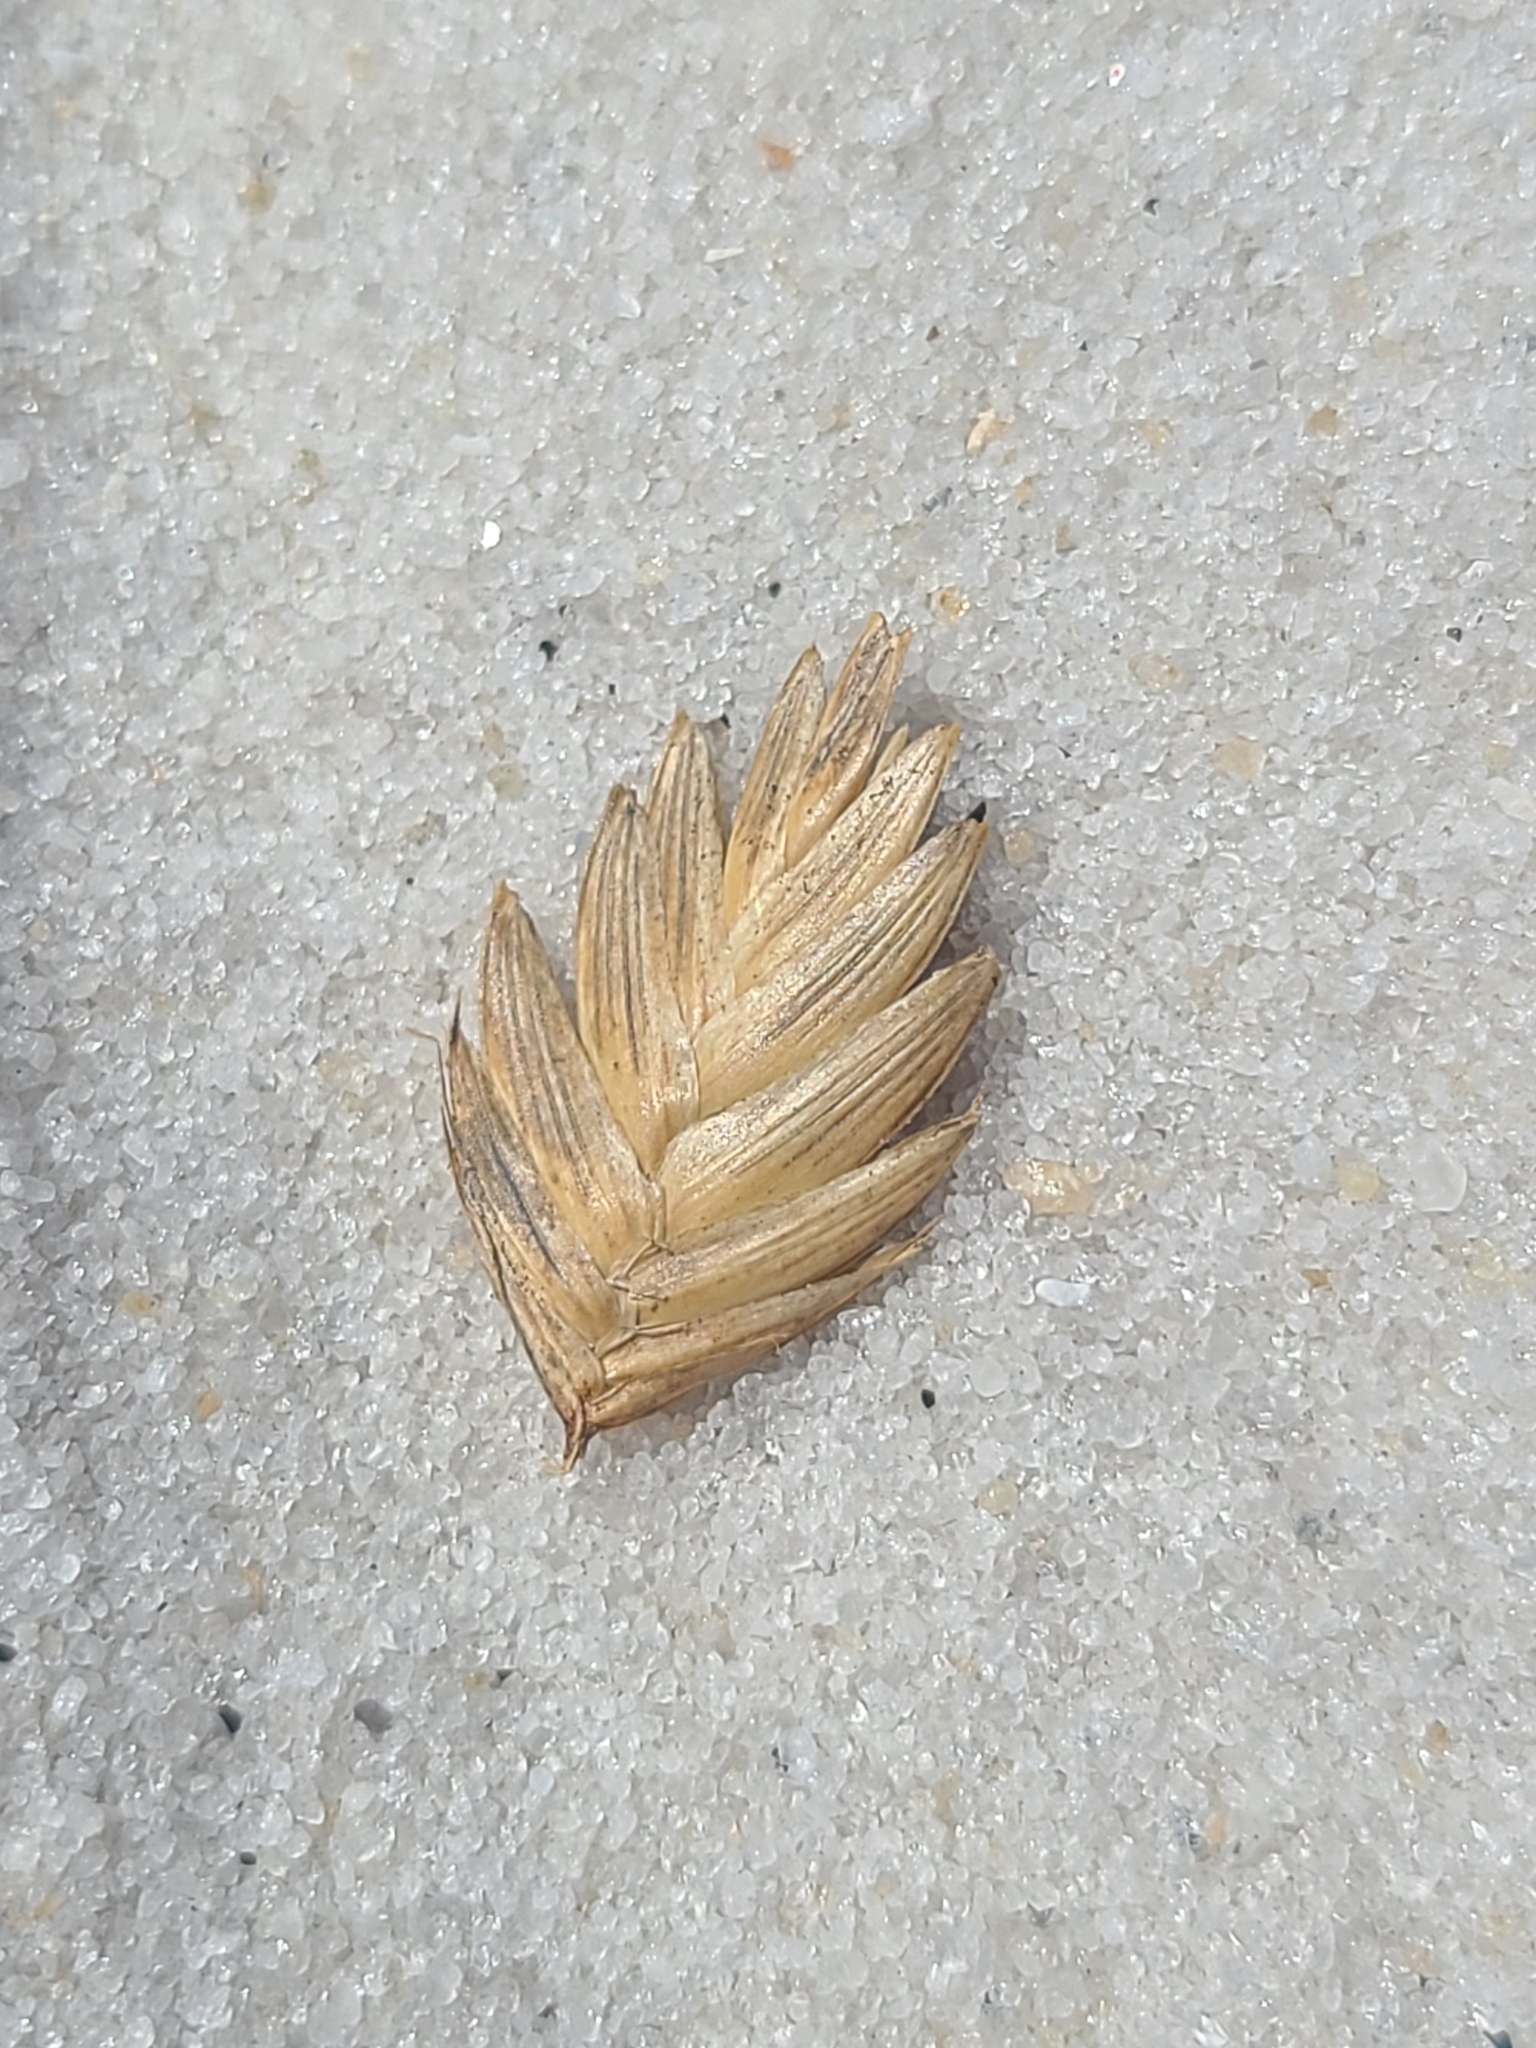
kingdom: Plantae
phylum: Tracheophyta
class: Liliopsida
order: Poales
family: Poaceae
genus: Uniola
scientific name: Uniola paniculata
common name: Seaside-oats
